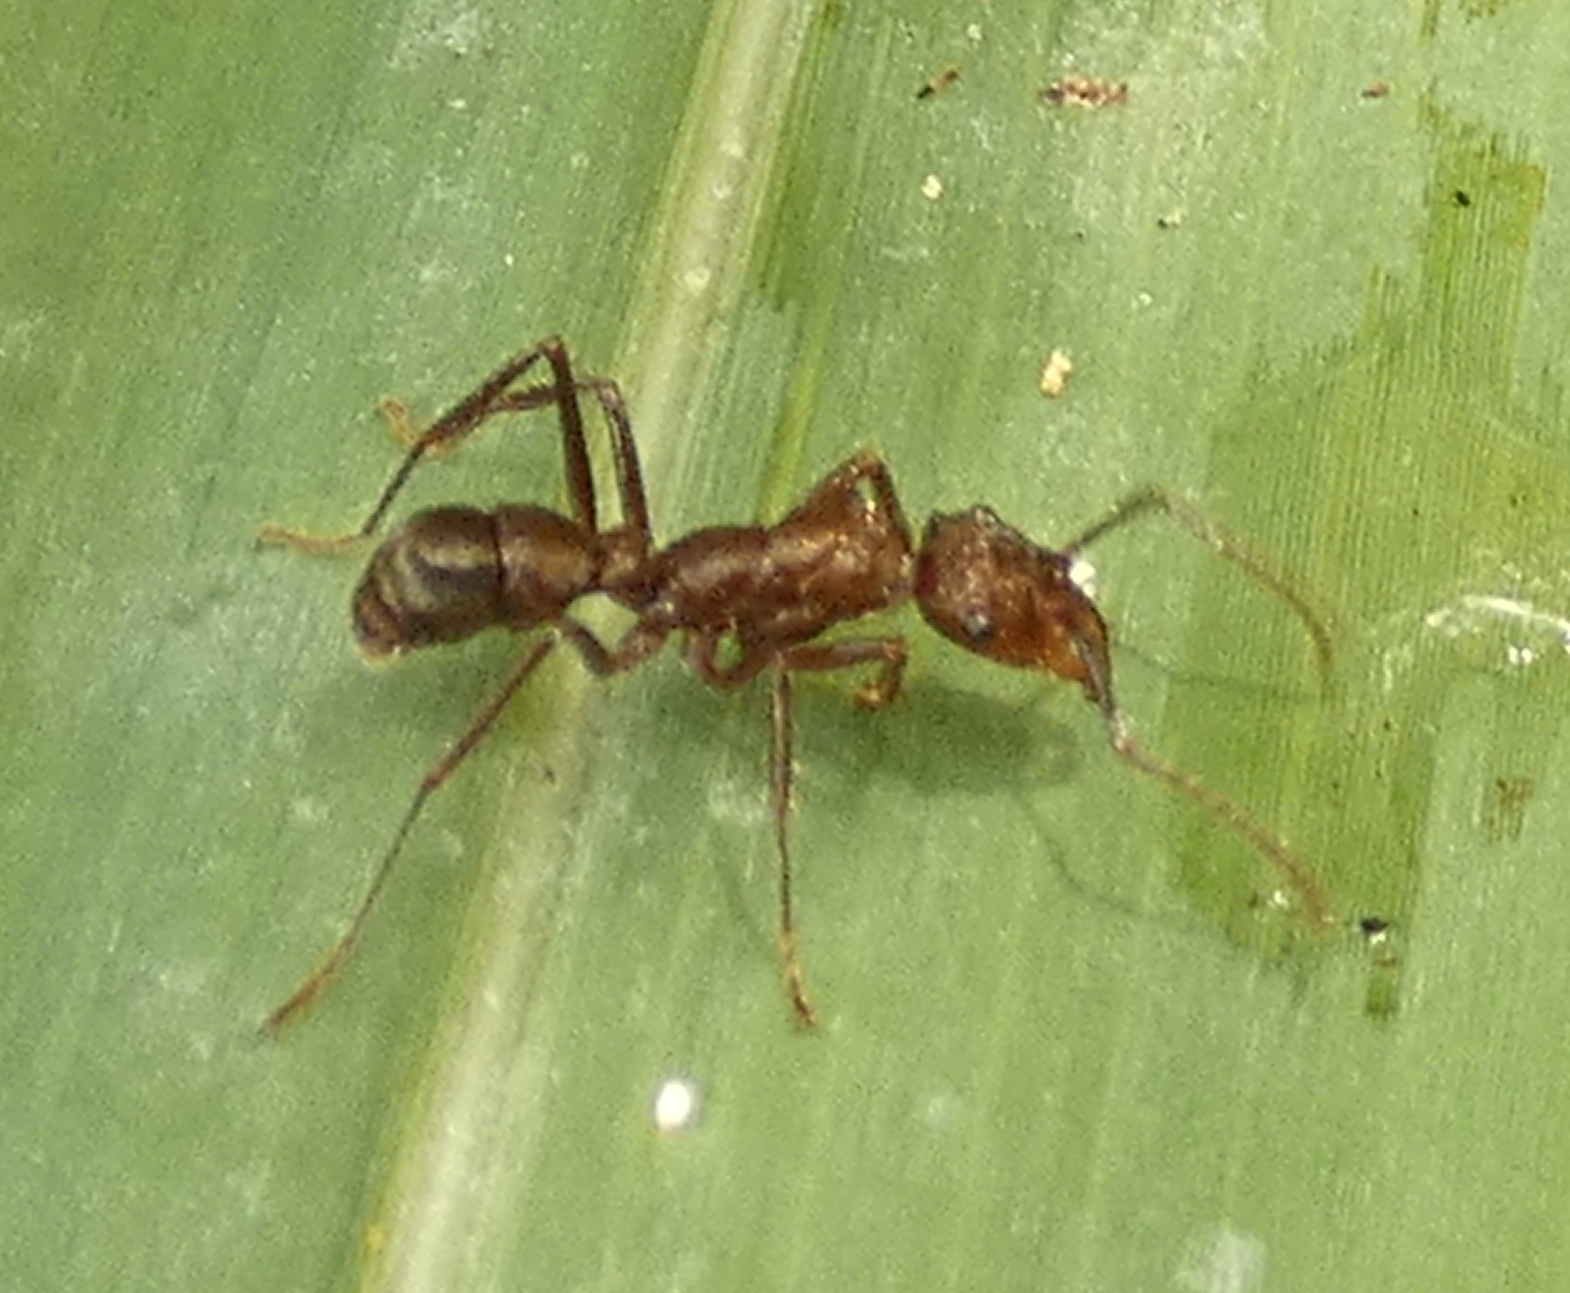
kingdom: Animalia
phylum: Arthropoda
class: Insecta
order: Hymenoptera
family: Formicidae
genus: Ectatomma
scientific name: Ectatomma tuberculatum
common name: Ant
